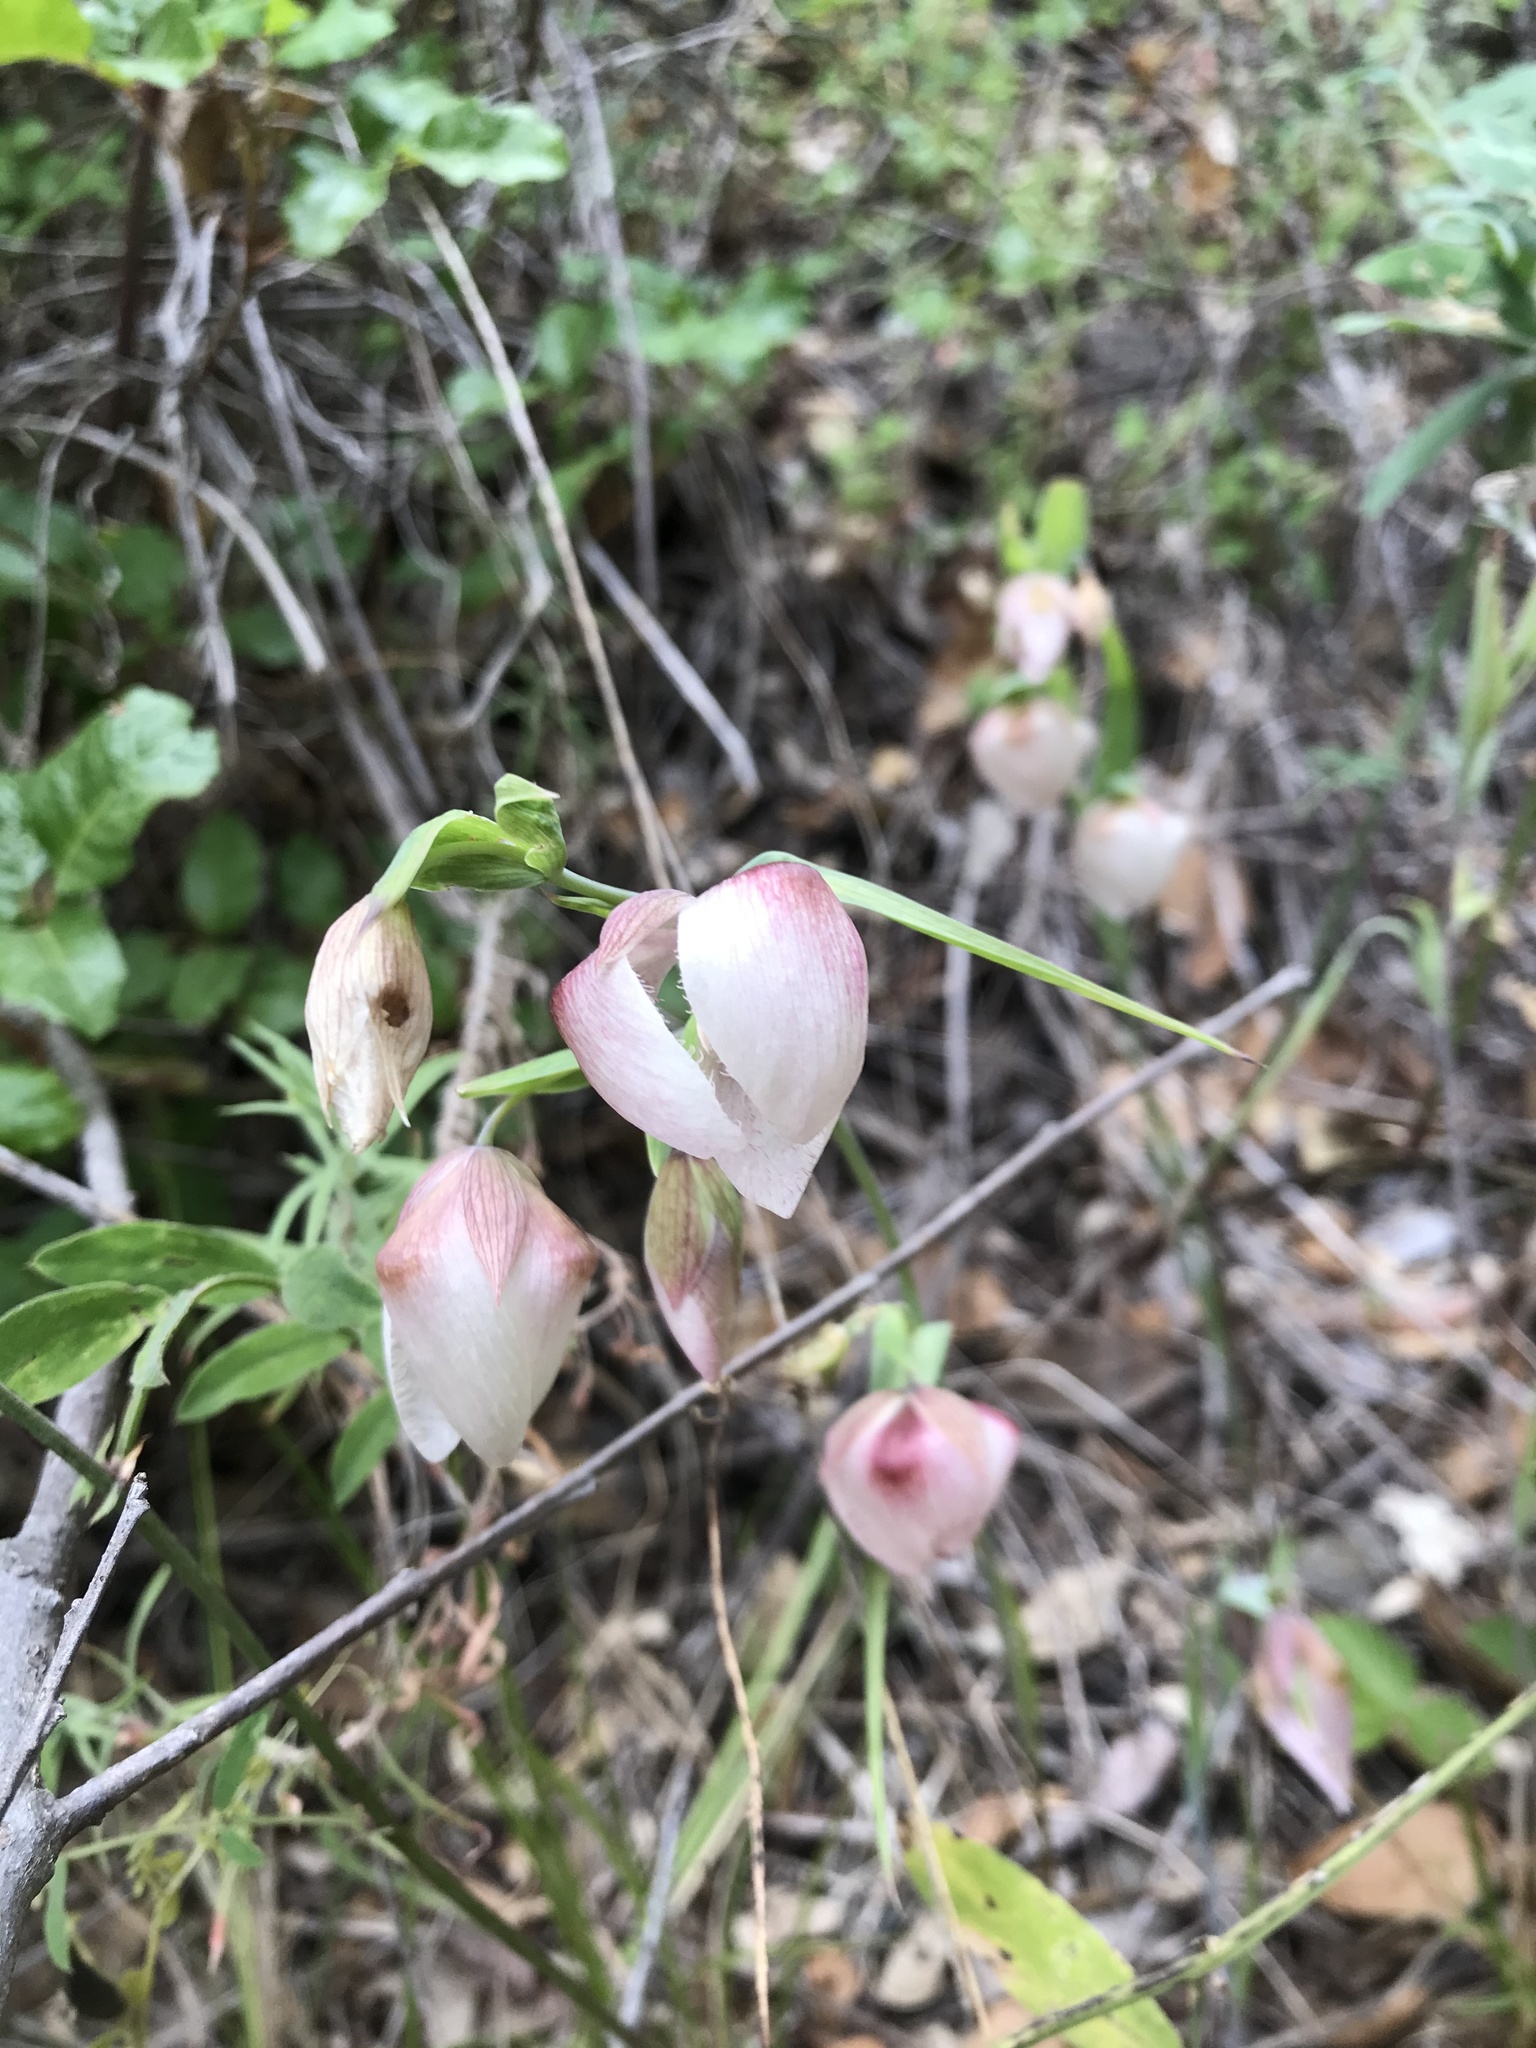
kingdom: Plantae
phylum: Tracheophyta
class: Liliopsida
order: Liliales
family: Liliaceae
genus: Calochortus
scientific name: Calochortus albus
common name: Fairy-lantern
